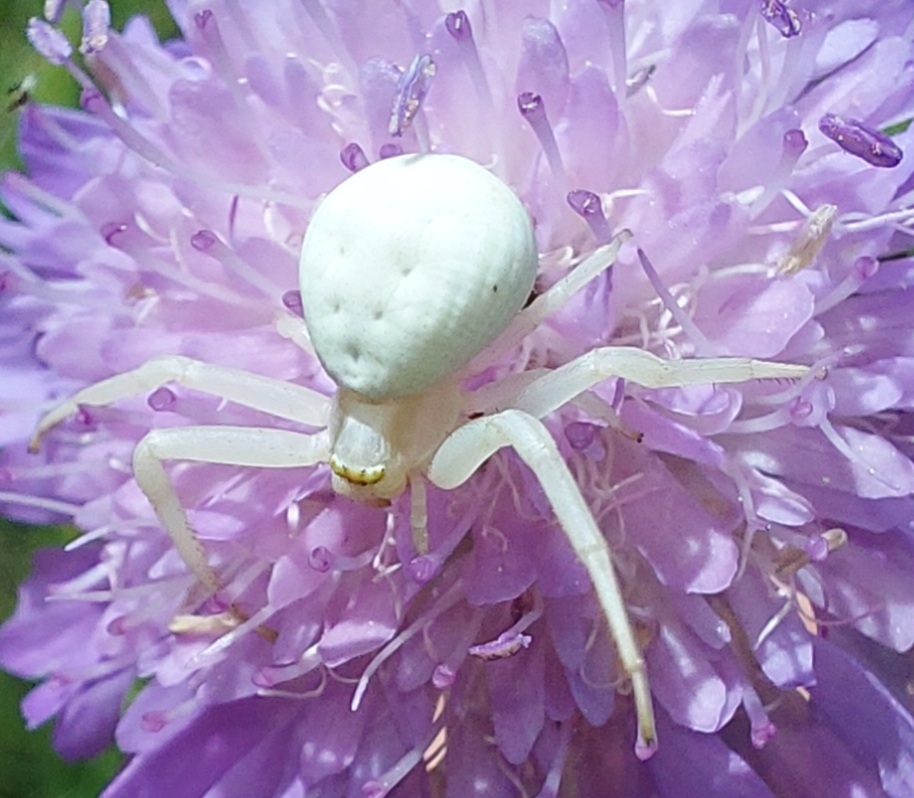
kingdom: Animalia
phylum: Arthropoda
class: Arachnida
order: Araneae
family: Thomisidae
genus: Misumena
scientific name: Misumena vatia
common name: Goldenrod crab spider
